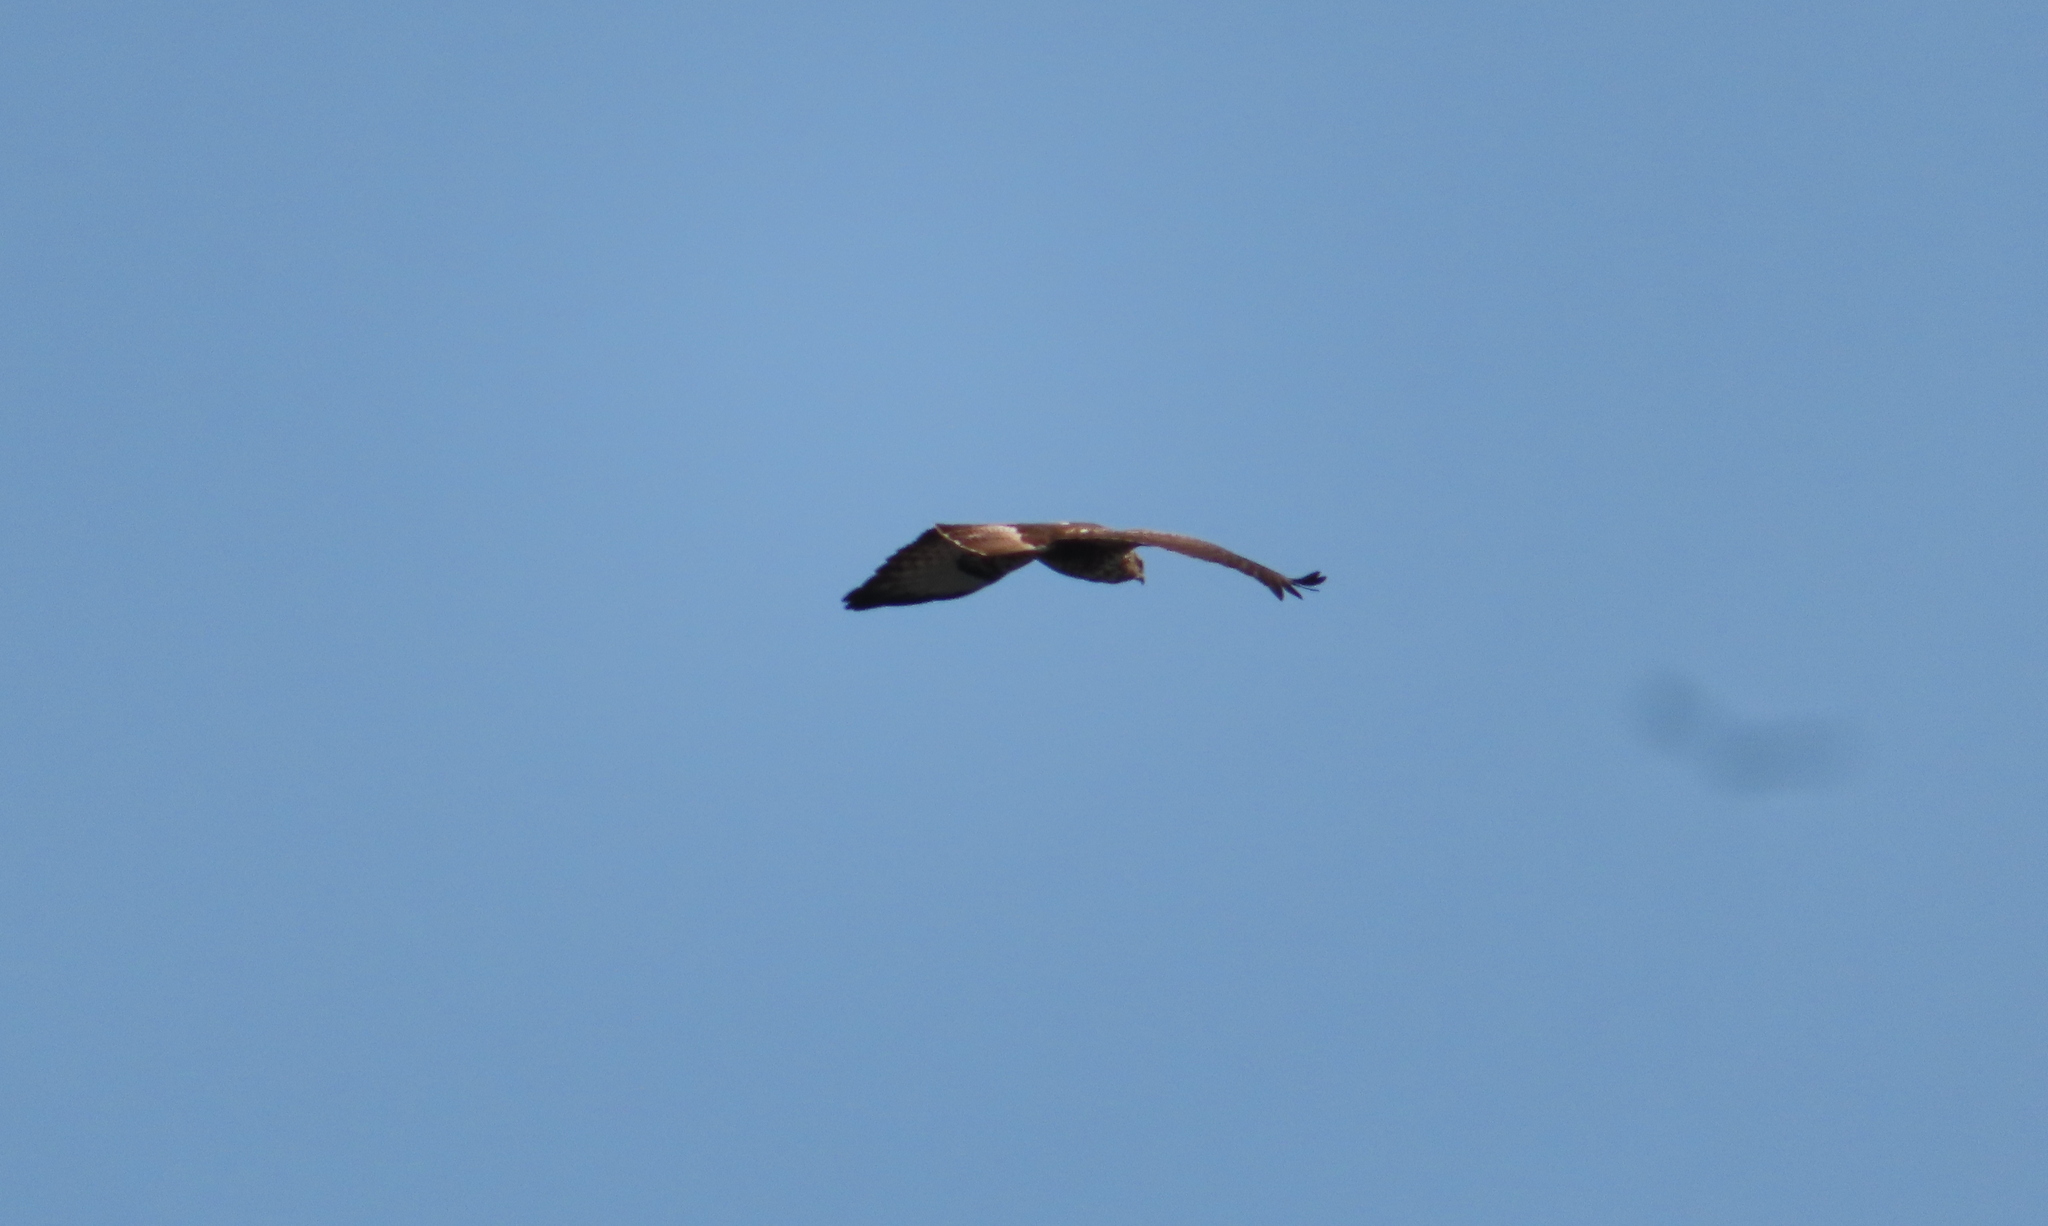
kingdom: Animalia
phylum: Chordata
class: Aves
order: Accipitriformes
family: Accipitridae
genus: Buteo
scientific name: Buteo buteo
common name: Common buzzard
